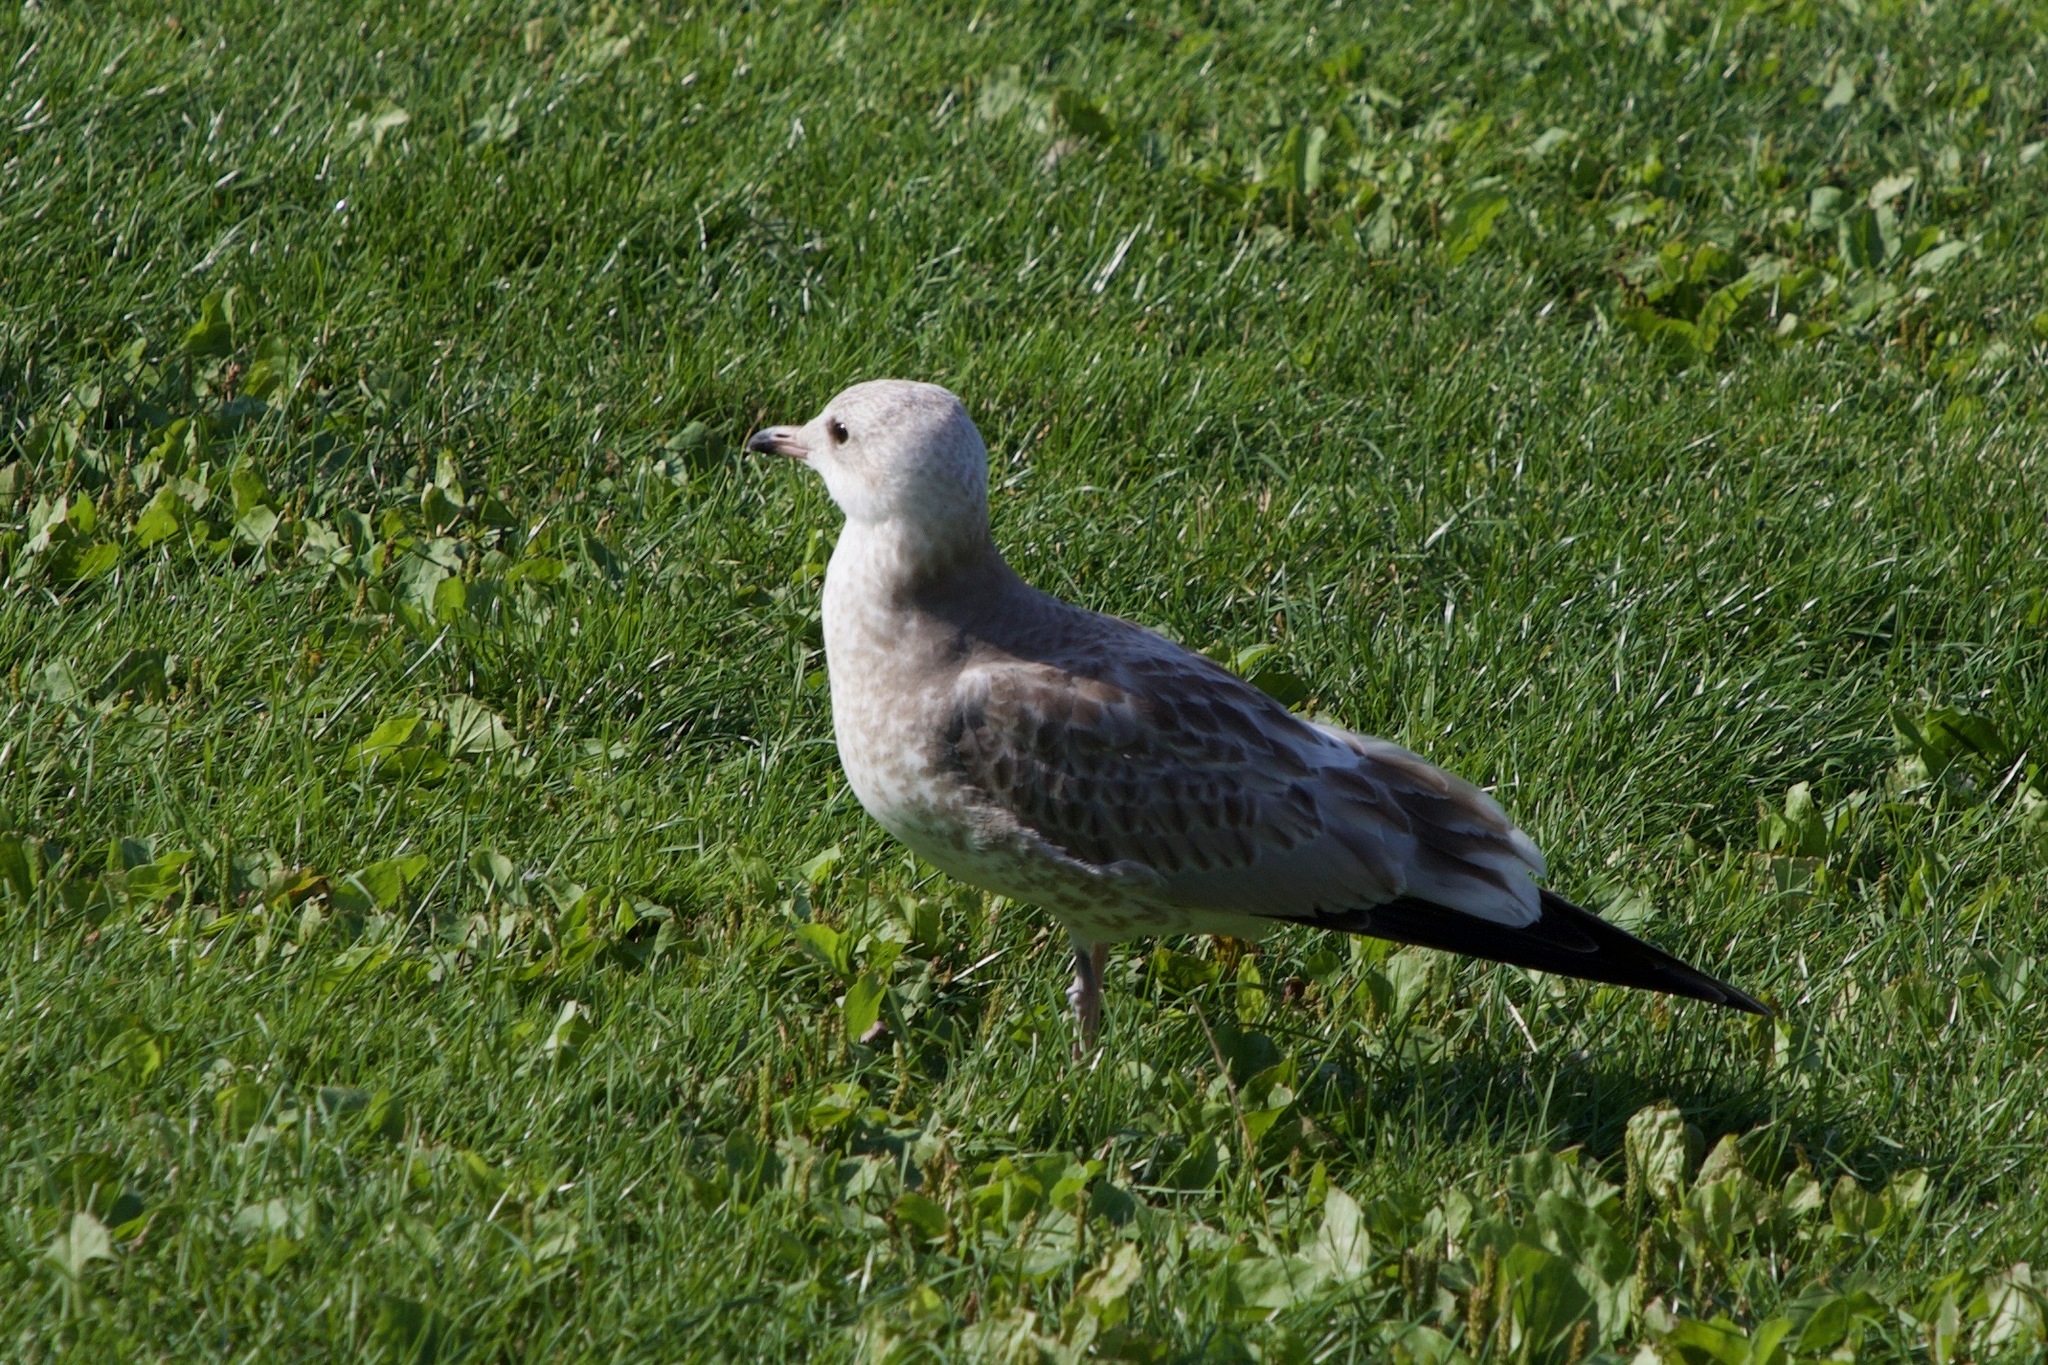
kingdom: Animalia
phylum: Chordata
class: Aves
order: Charadriiformes
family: Laridae
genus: Larus
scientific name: Larus canus
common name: Mew gull
